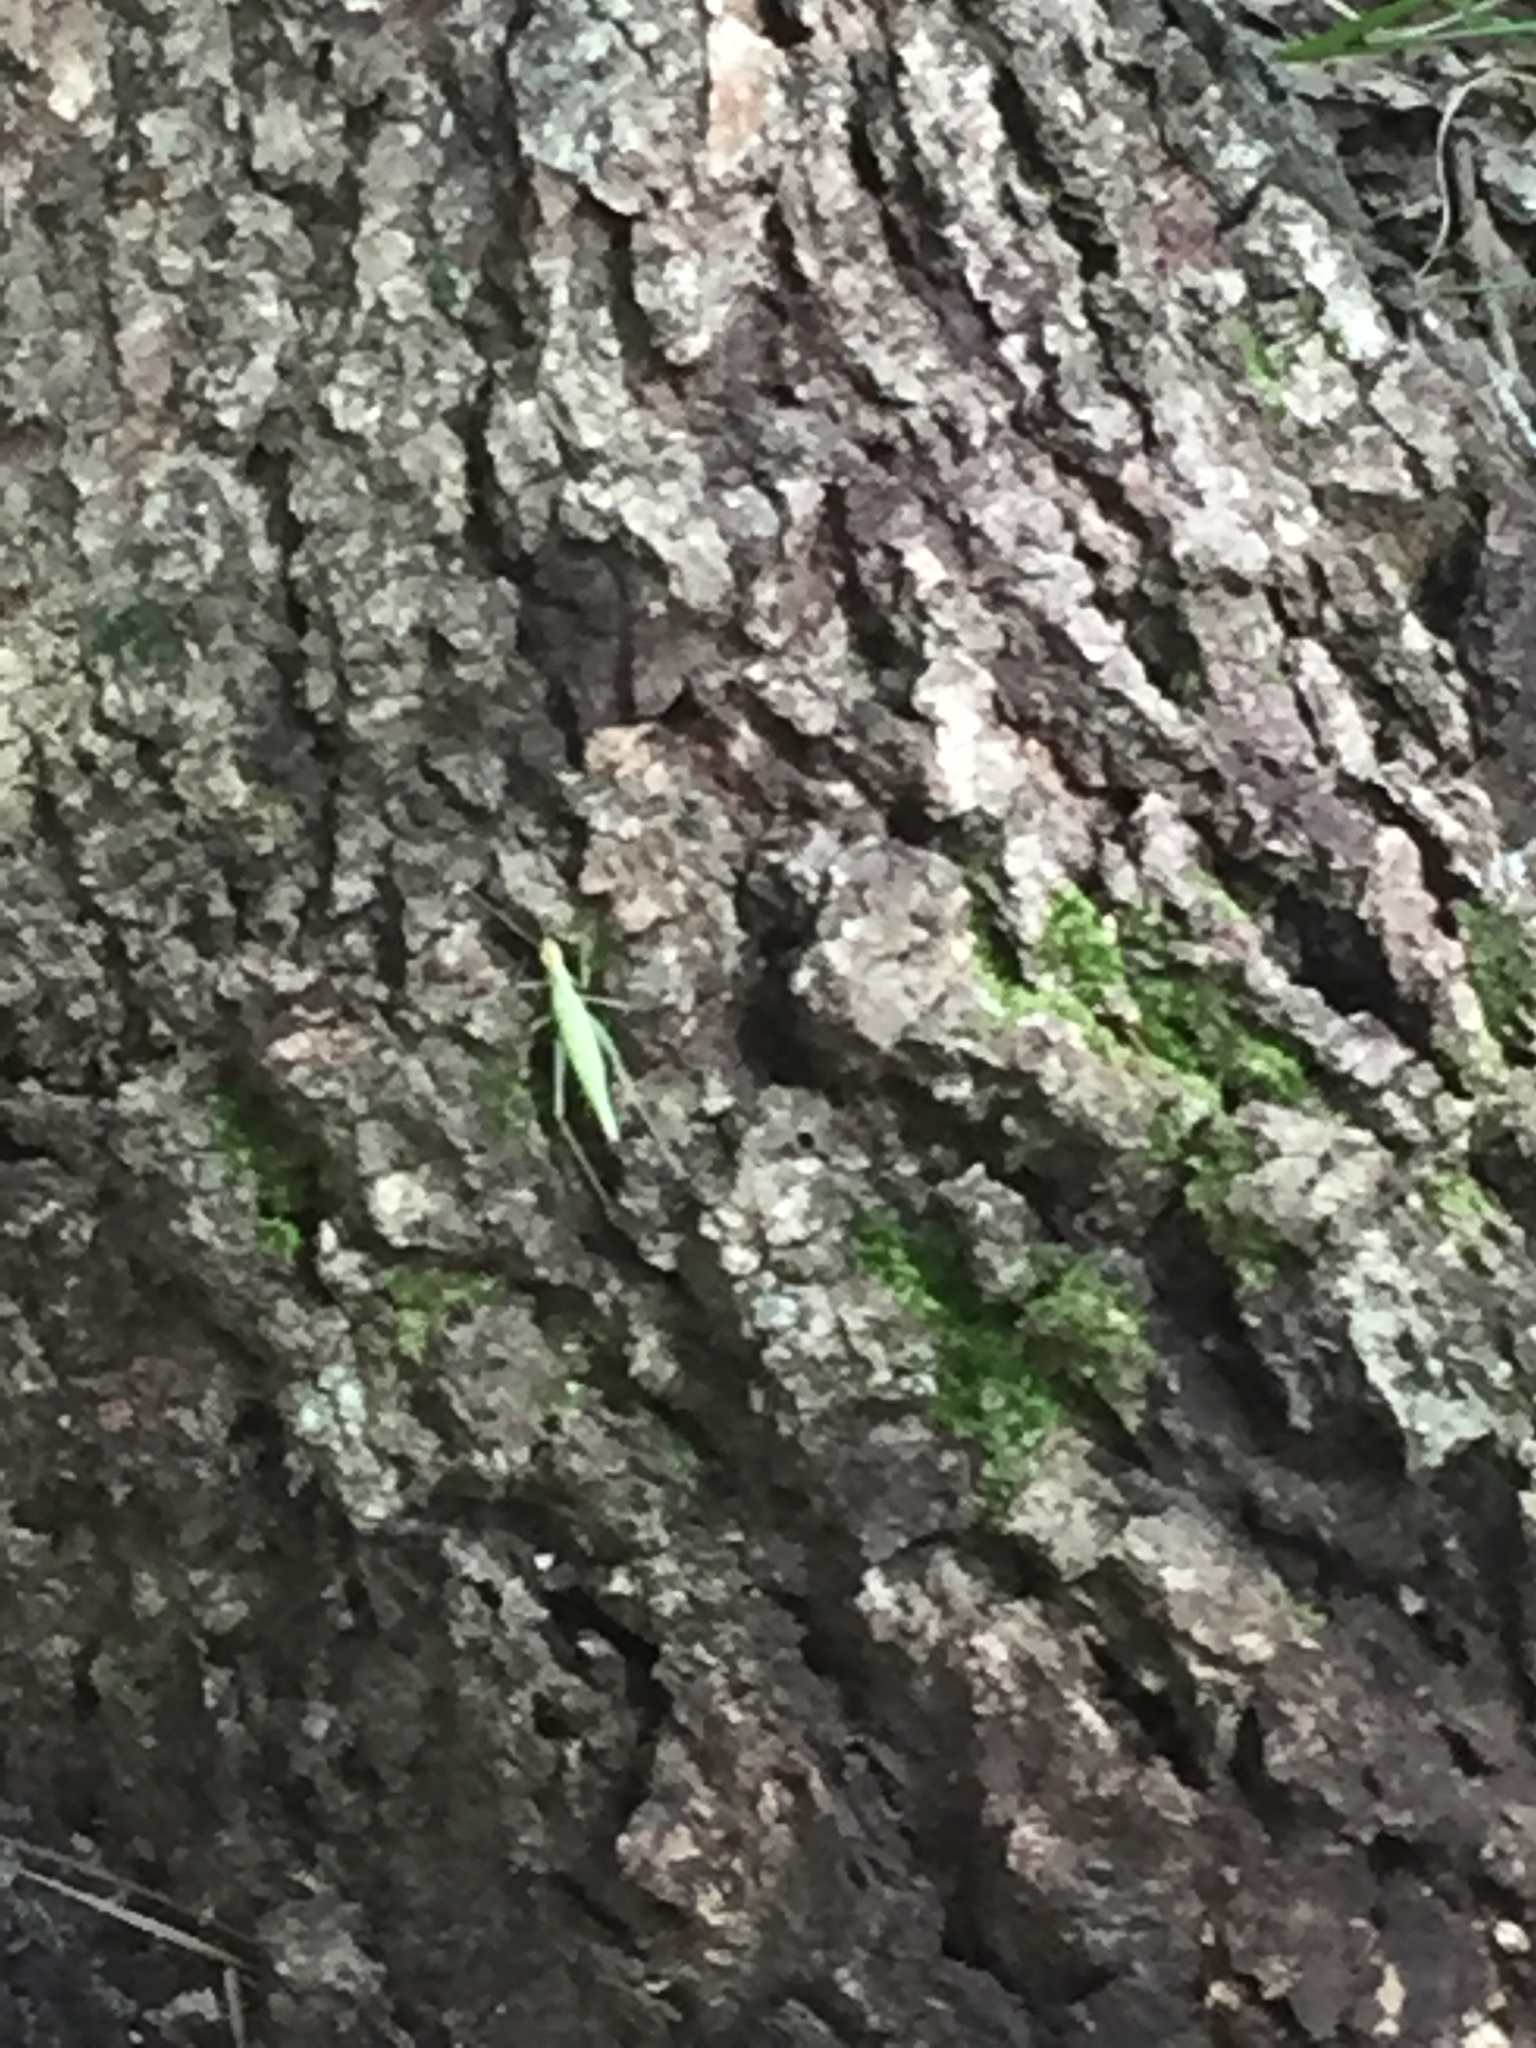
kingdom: Animalia
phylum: Arthropoda
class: Insecta
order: Orthoptera
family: Gryllidae
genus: Oecanthus
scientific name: Oecanthus niveus
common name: Narrow-winged tree cricket
